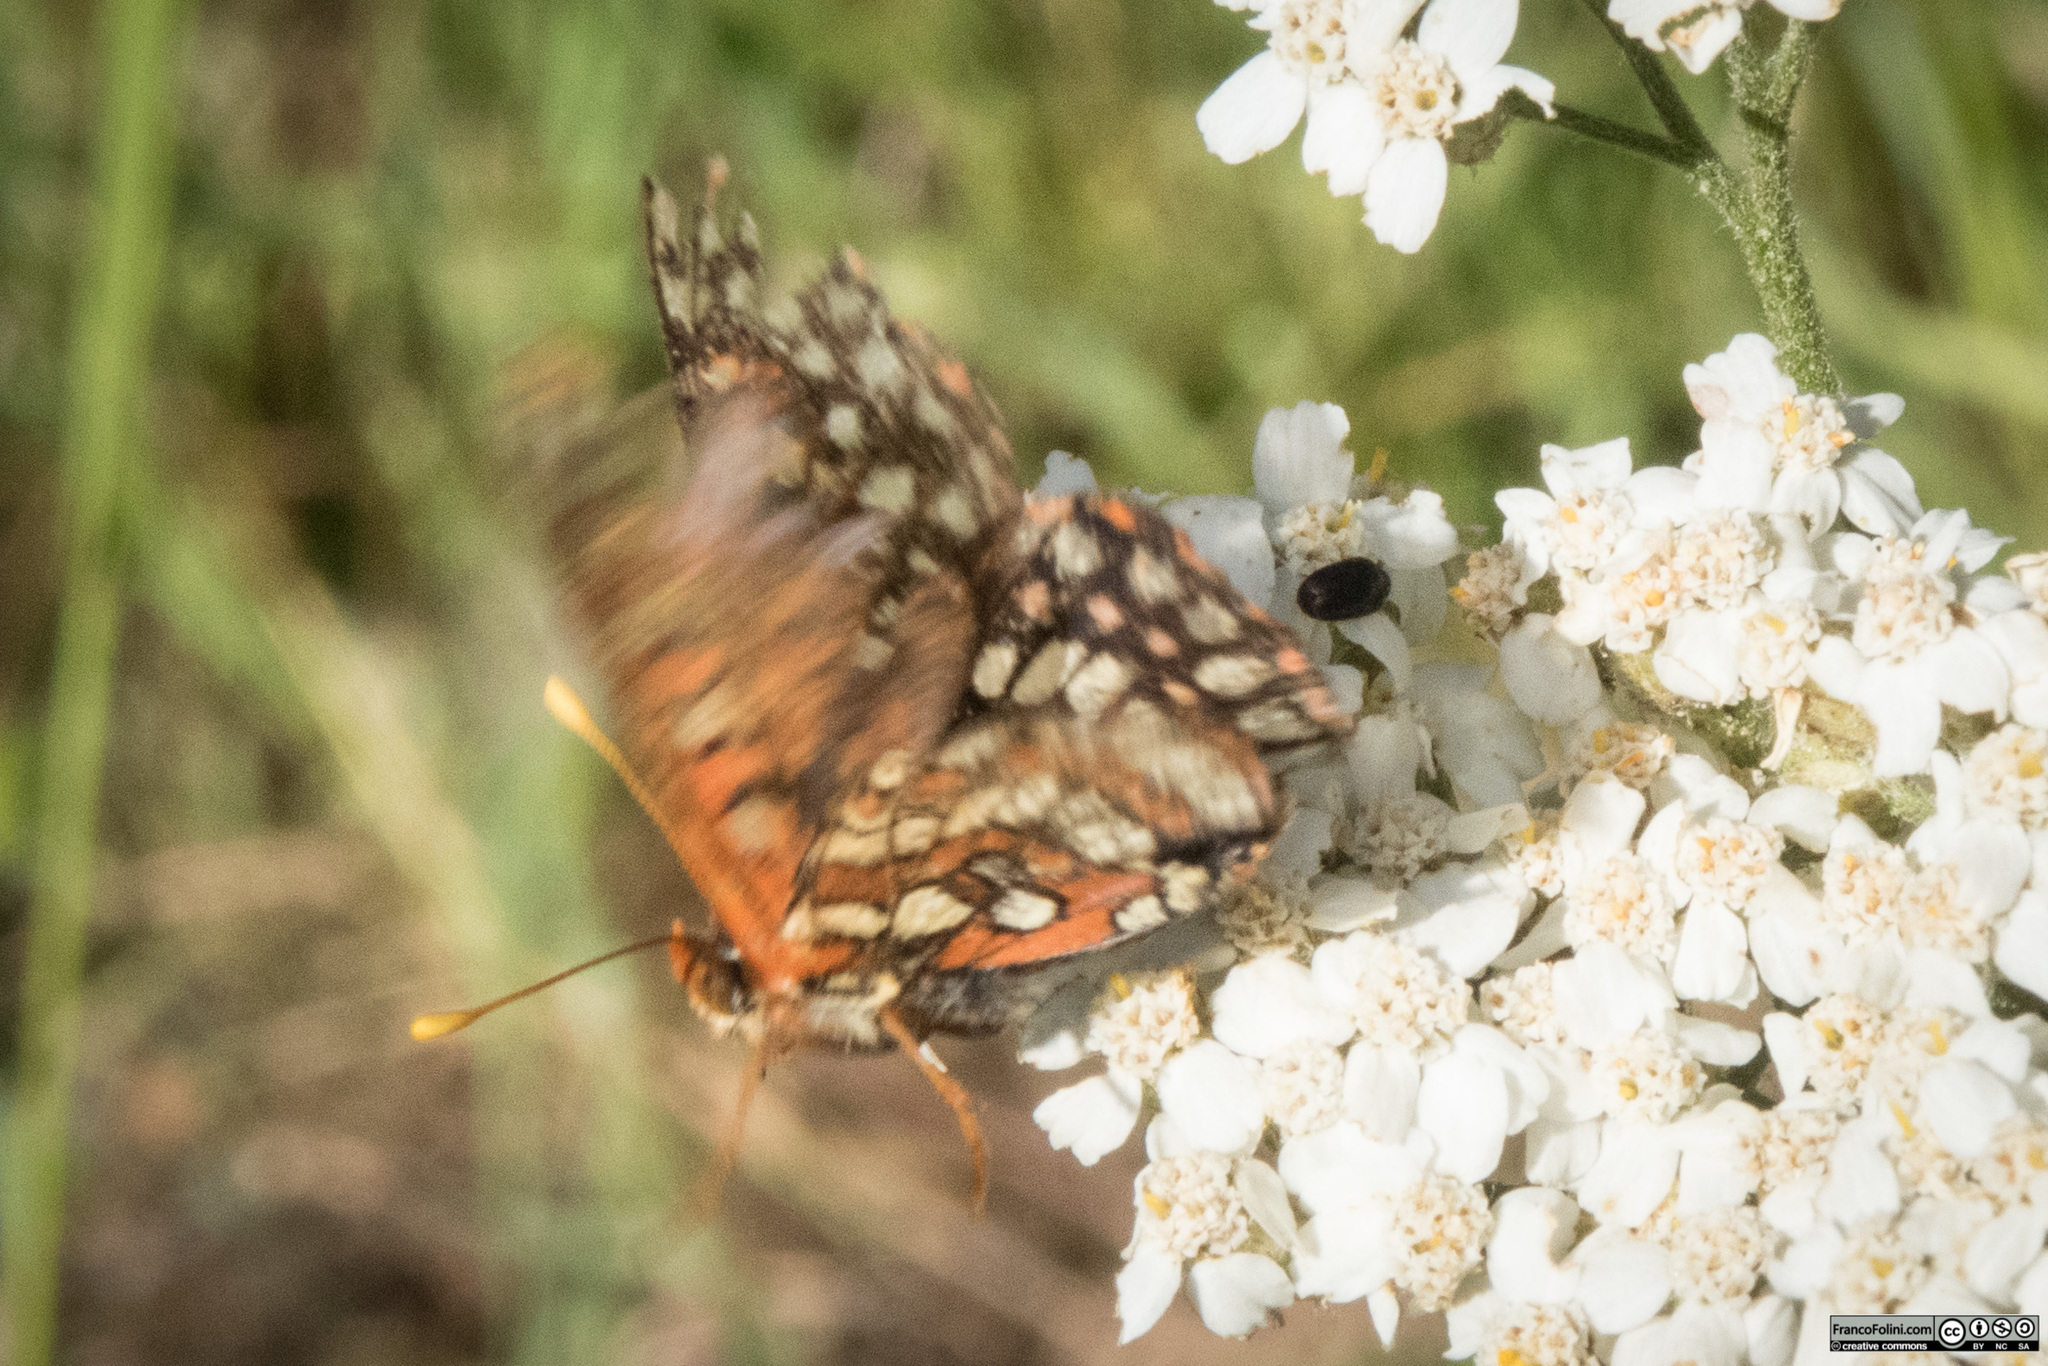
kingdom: Animalia
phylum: Arthropoda
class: Insecta
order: Lepidoptera
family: Nymphalidae
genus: Occidryas
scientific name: Occidryas chalcedona
